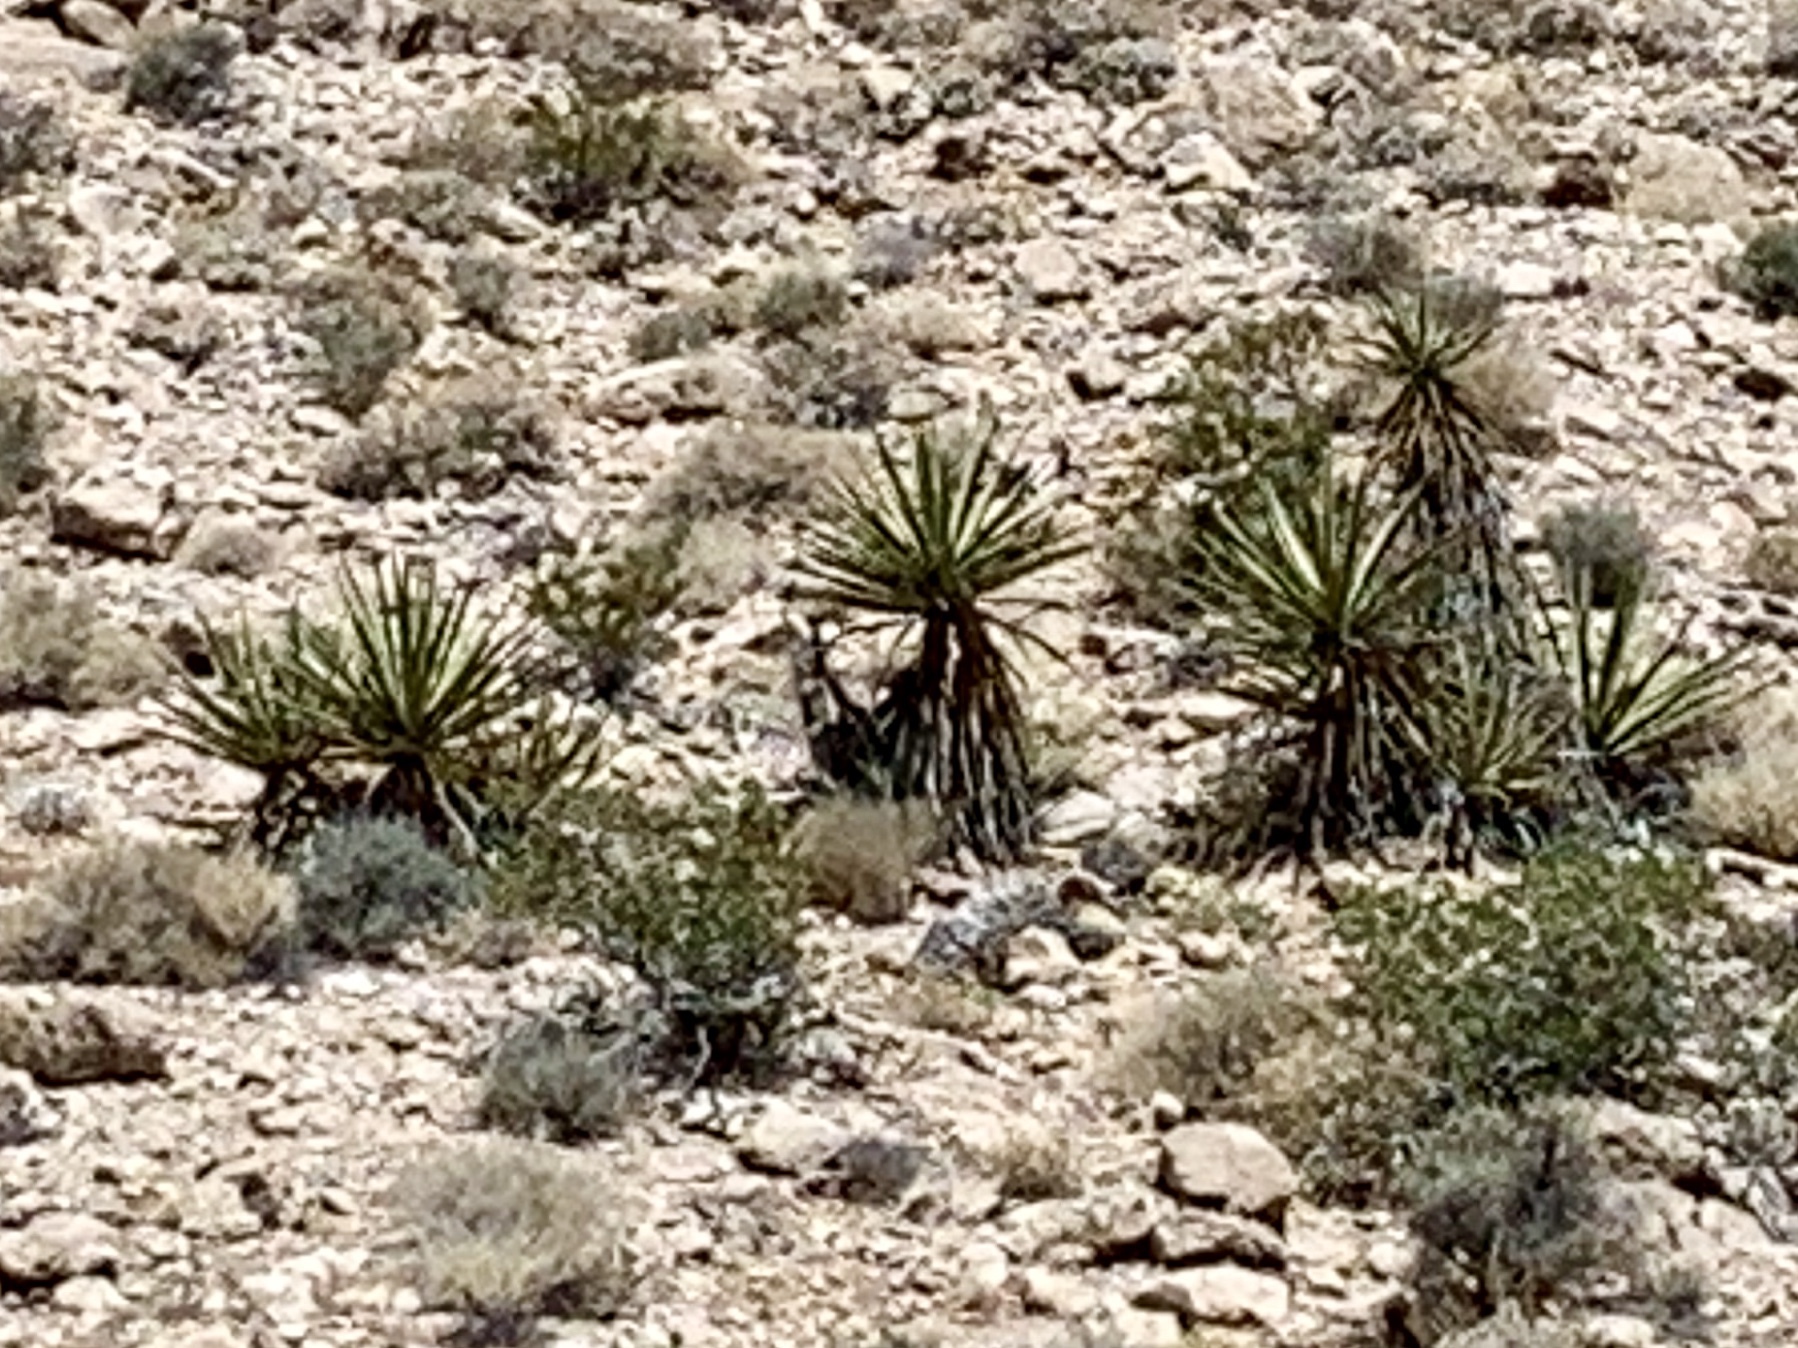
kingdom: Plantae
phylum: Tracheophyta
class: Liliopsida
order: Asparagales
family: Asparagaceae
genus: Yucca
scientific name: Yucca schidigera
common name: Mojave yucca
